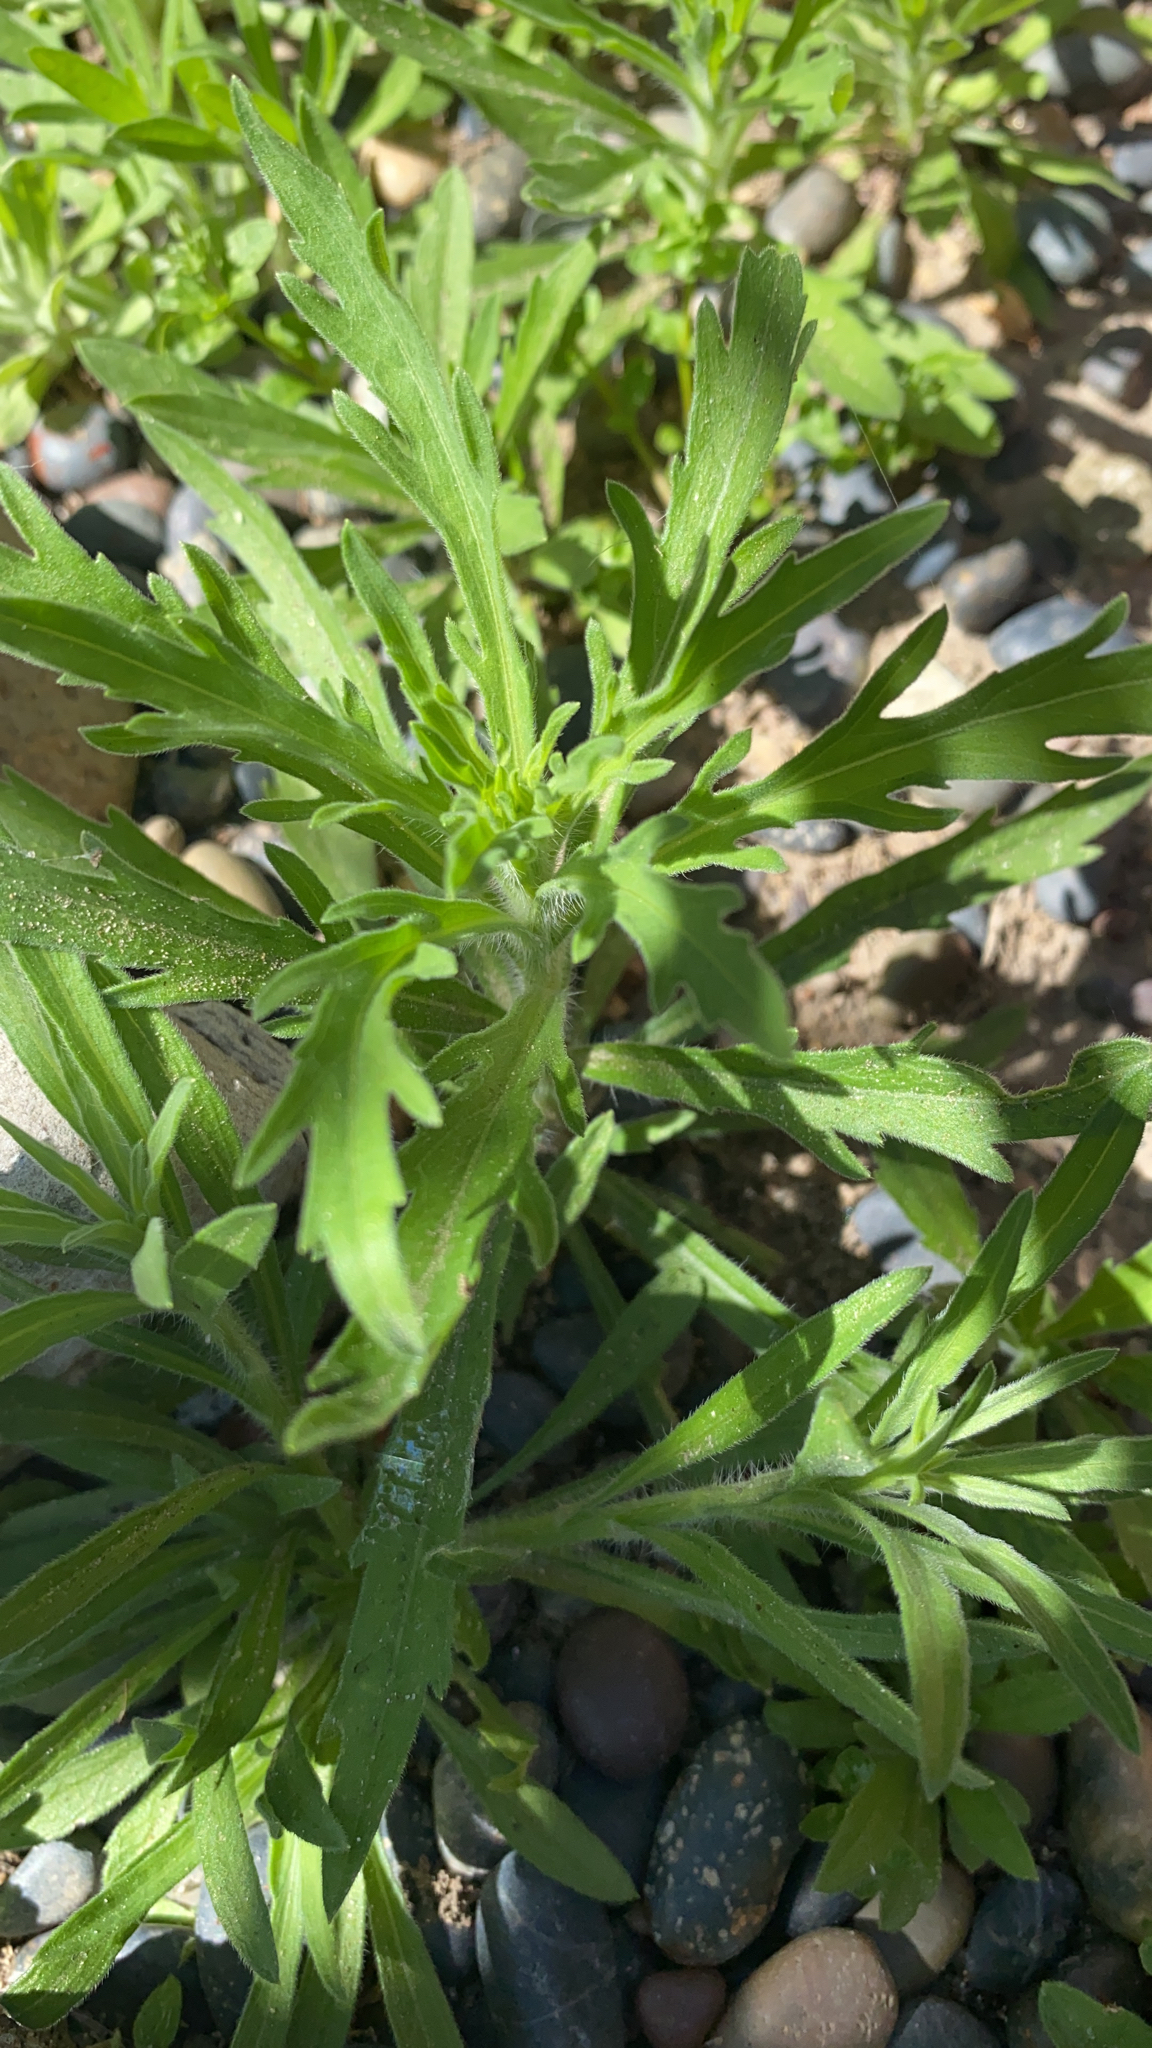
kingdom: Plantae
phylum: Tracheophyta
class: Magnoliopsida
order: Asterales
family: Asteraceae
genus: Ambrosia
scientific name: Ambrosia psilostachya
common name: Perennial ragweed
